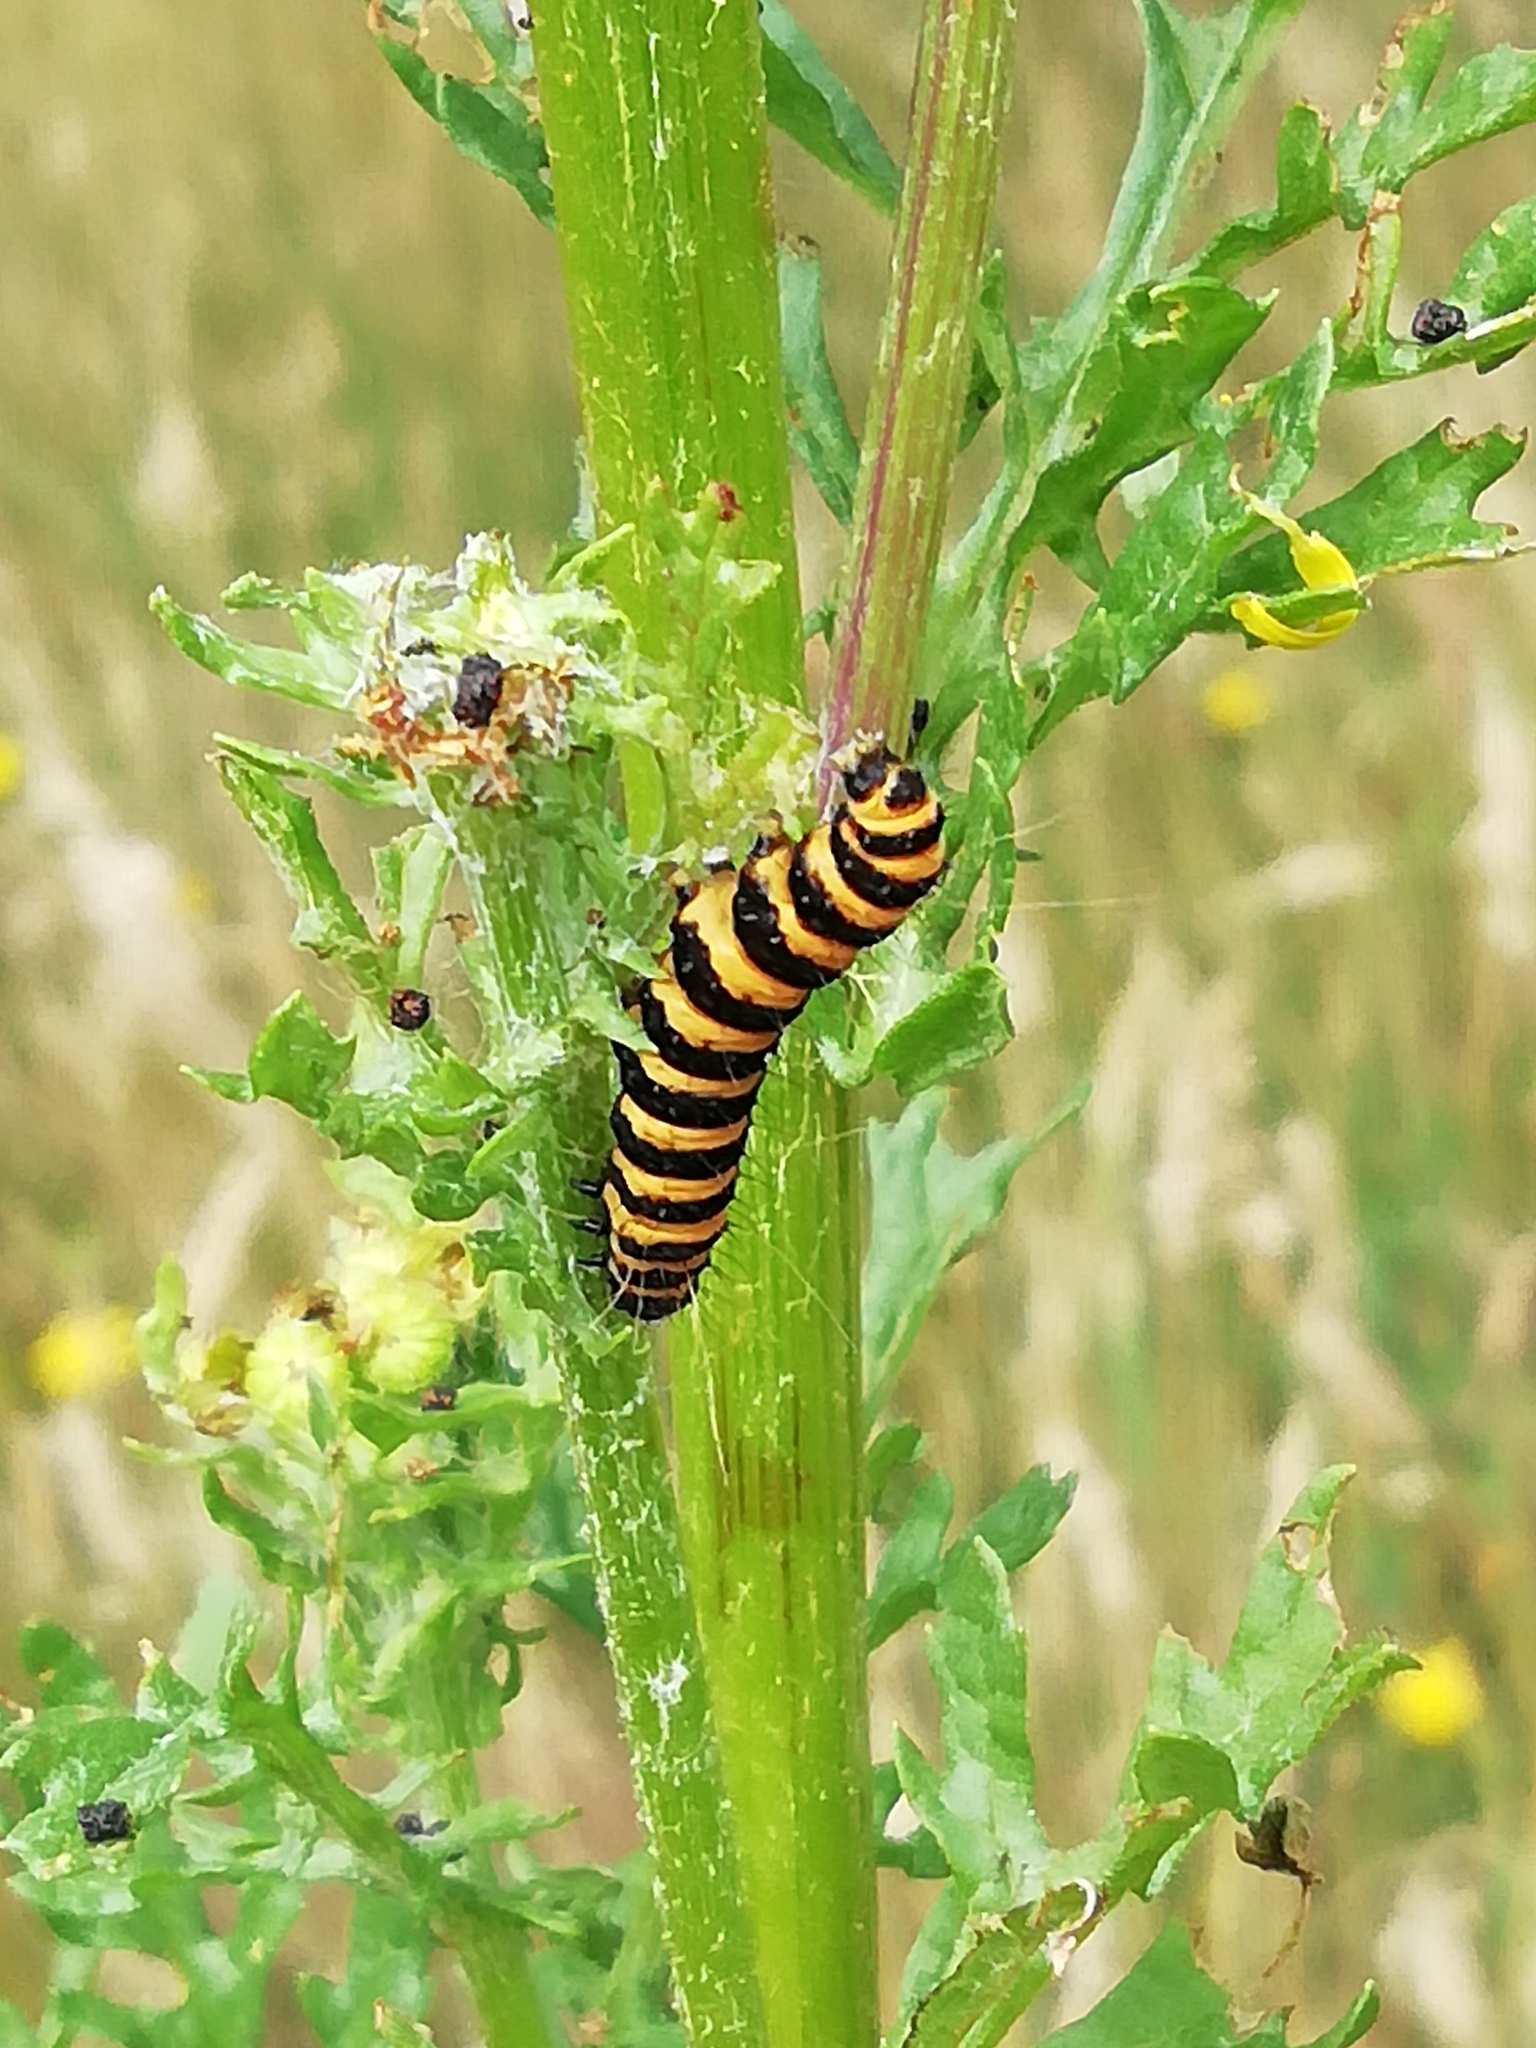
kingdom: Animalia
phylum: Arthropoda
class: Insecta
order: Lepidoptera
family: Erebidae
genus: Tyria
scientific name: Tyria jacobaeae
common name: Cinnabar
